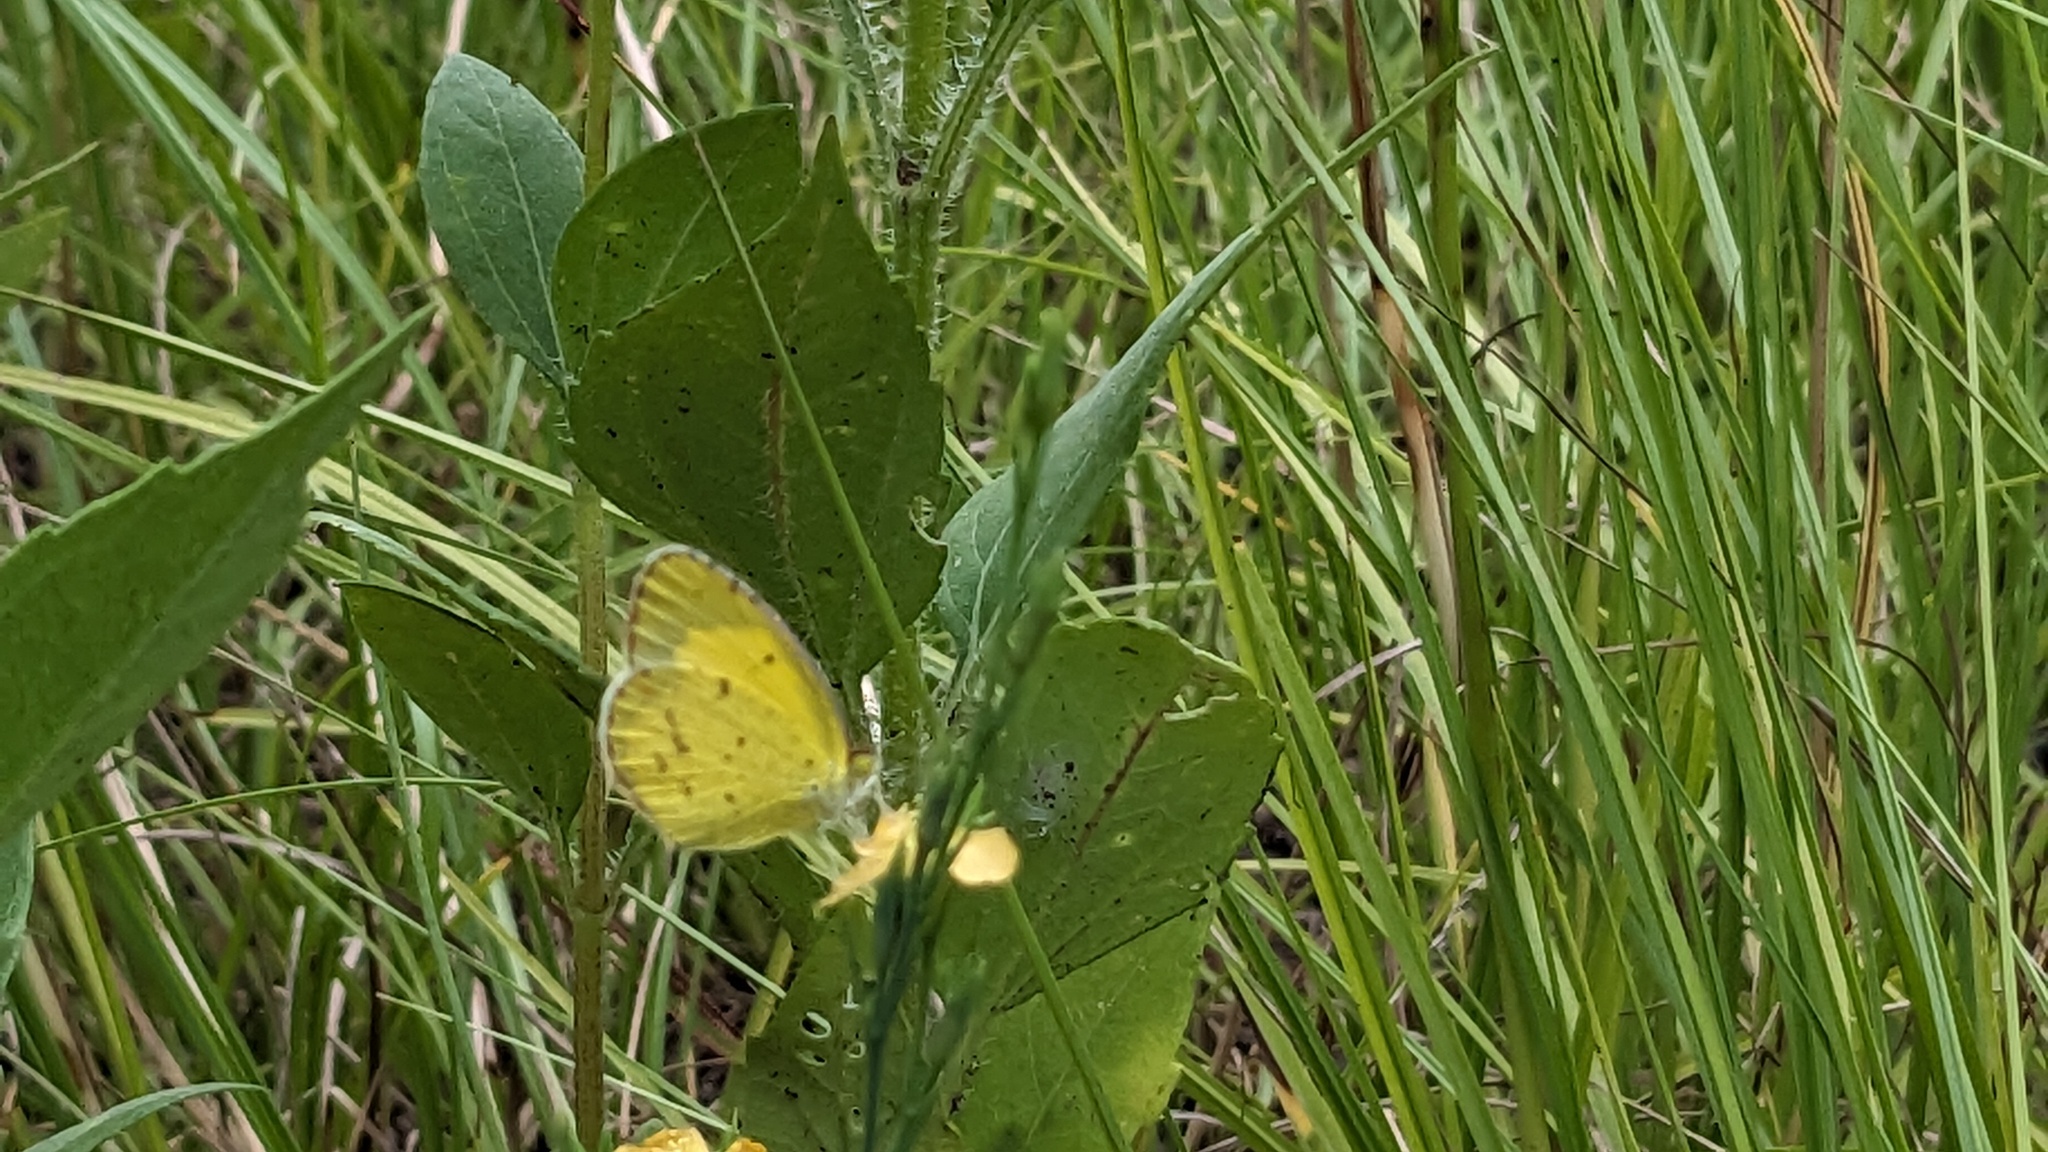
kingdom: Animalia
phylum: Arthropoda
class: Insecta
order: Lepidoptera
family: Pieridae
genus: Pyrisitia
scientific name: Pyrisitia lisa
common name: Little yellow
